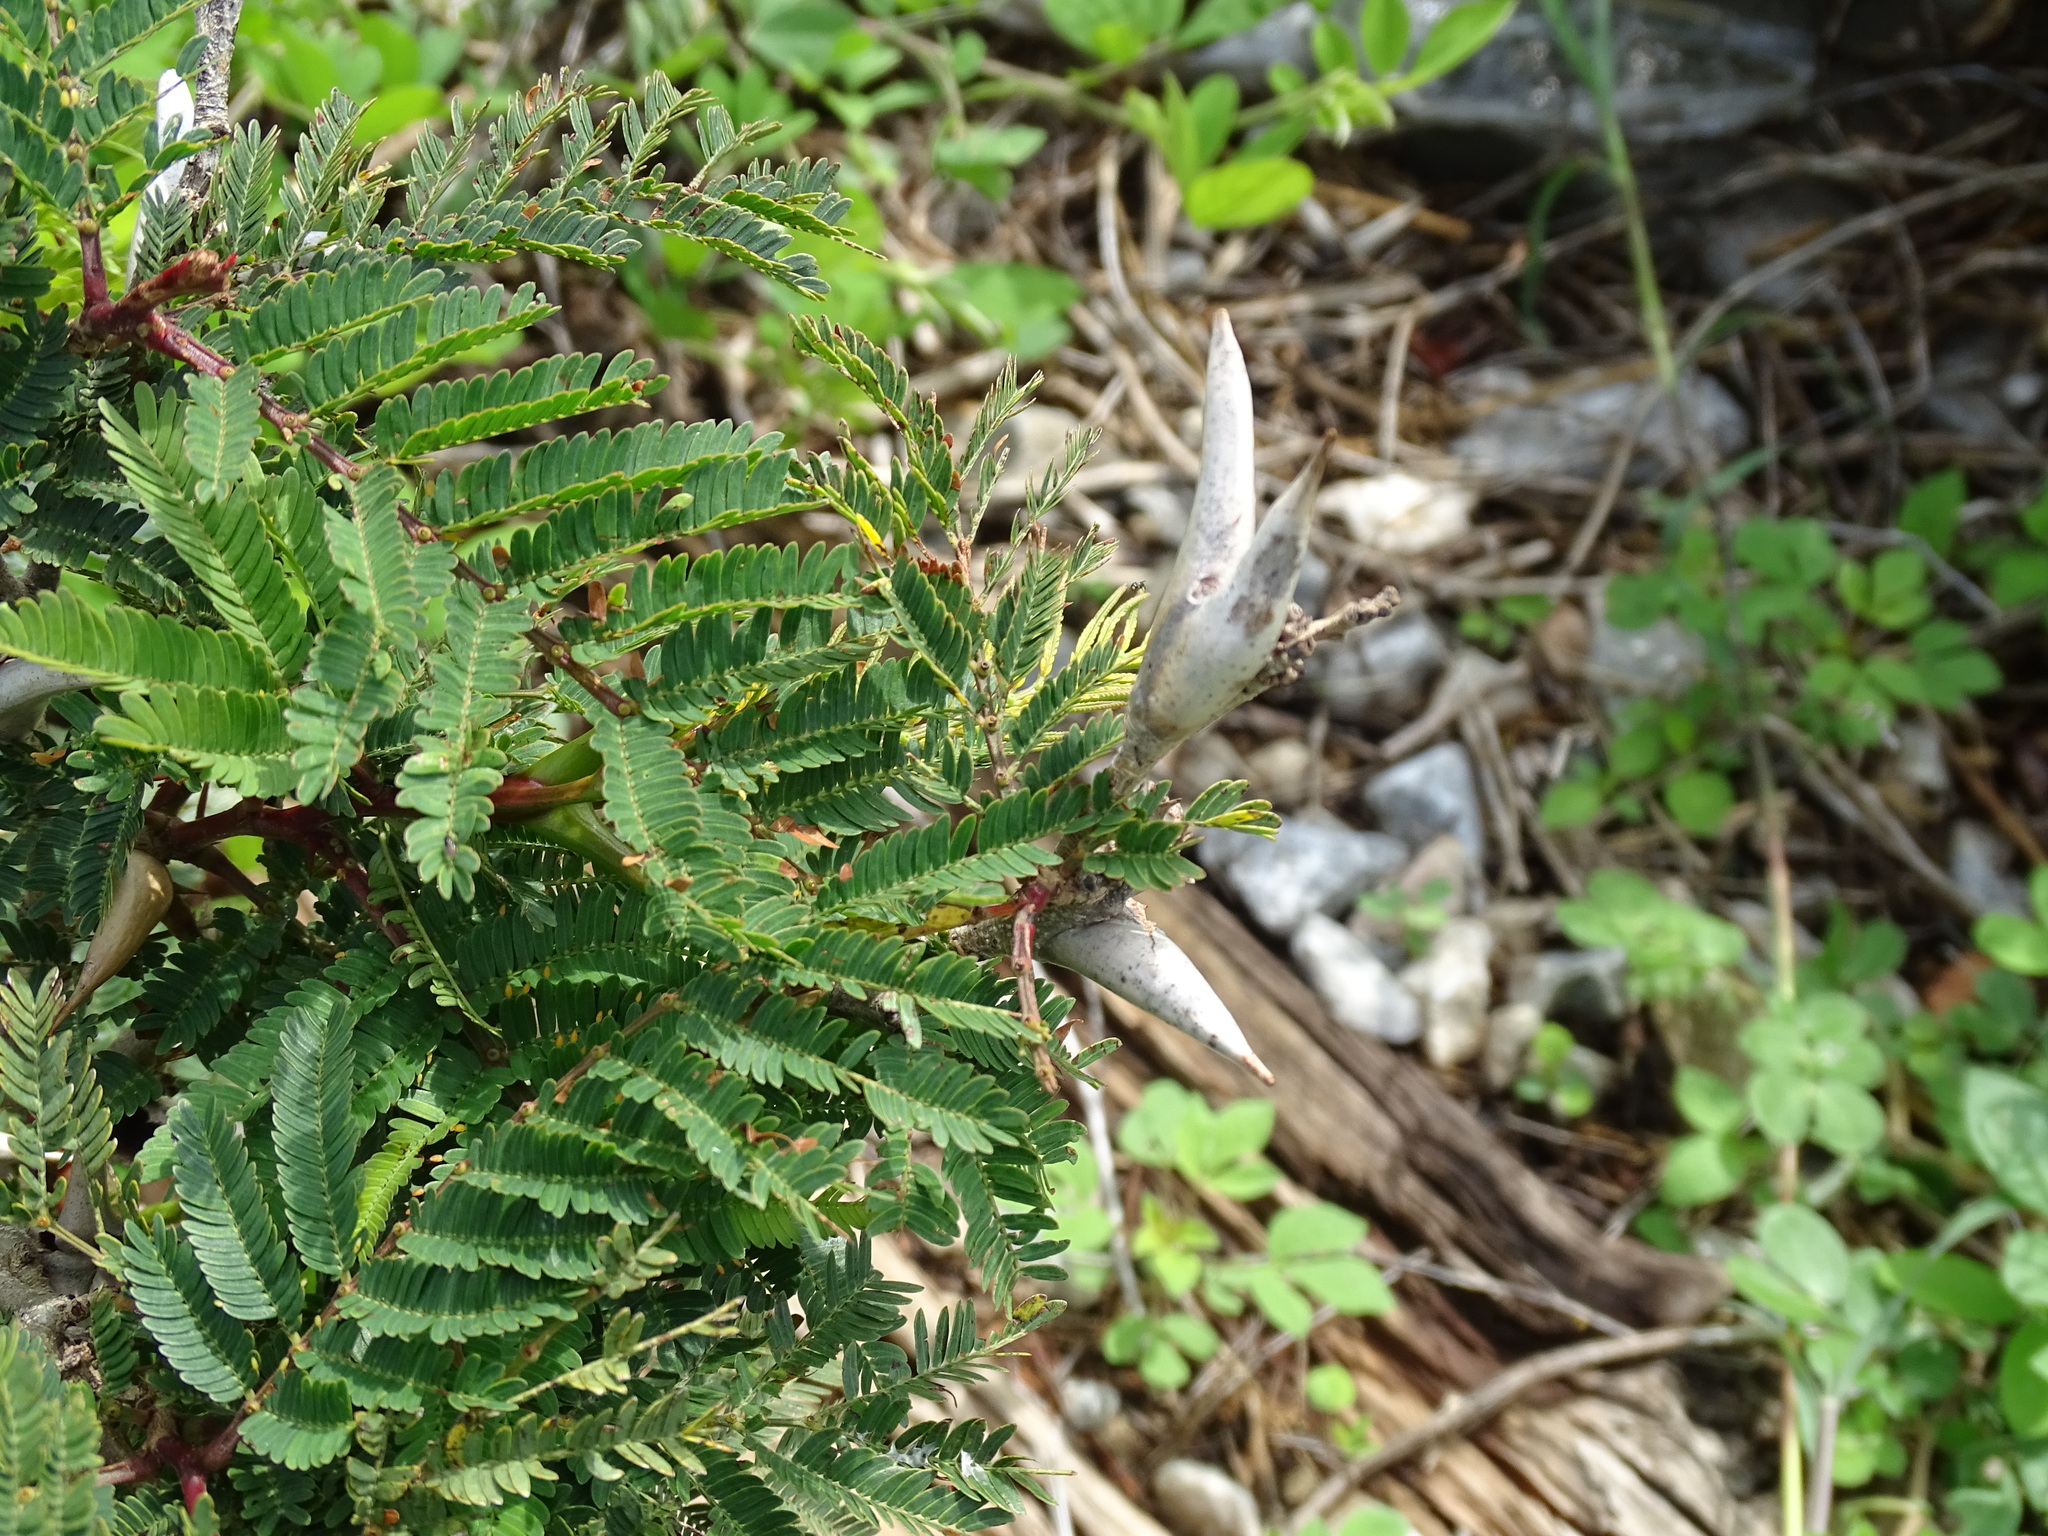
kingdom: Plantae
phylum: Tracheophyta
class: Magnoliopsida
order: Fabales
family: Fabaceae
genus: Vachellia
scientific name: Vachellia cornigera
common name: Bullhorn wattle
